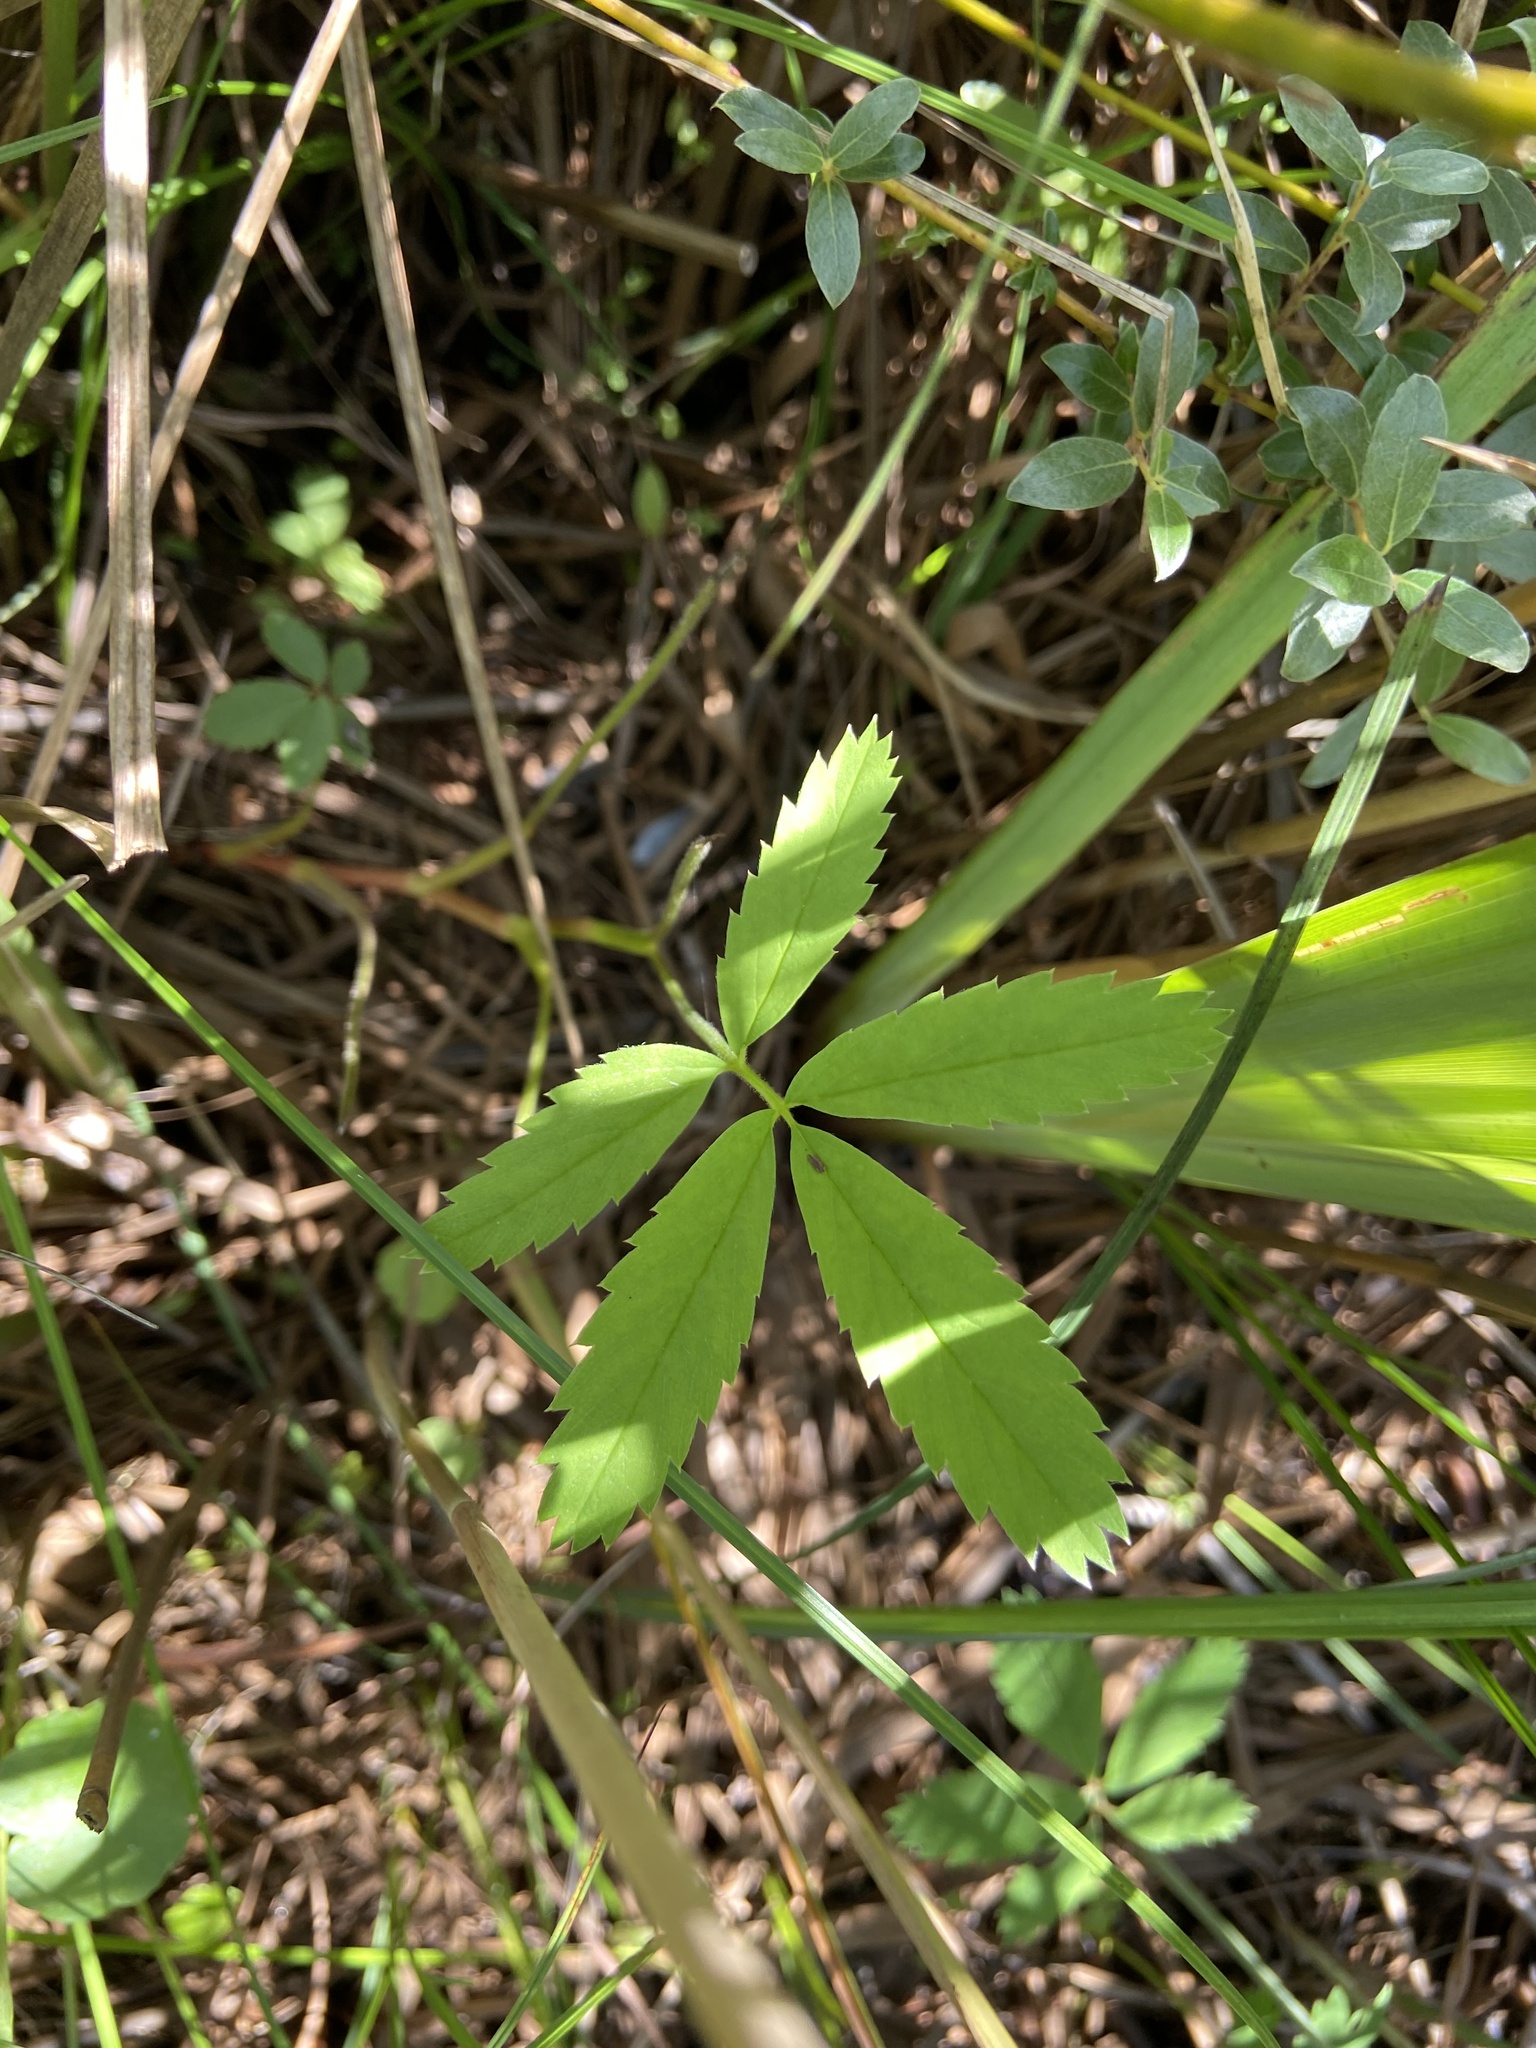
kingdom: Plantae
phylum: Tracheophyta
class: Magnoliopsida
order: Rosales
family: Rosaceae
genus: Comarum
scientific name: Comarum palustre
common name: Marsh cinquefoil
